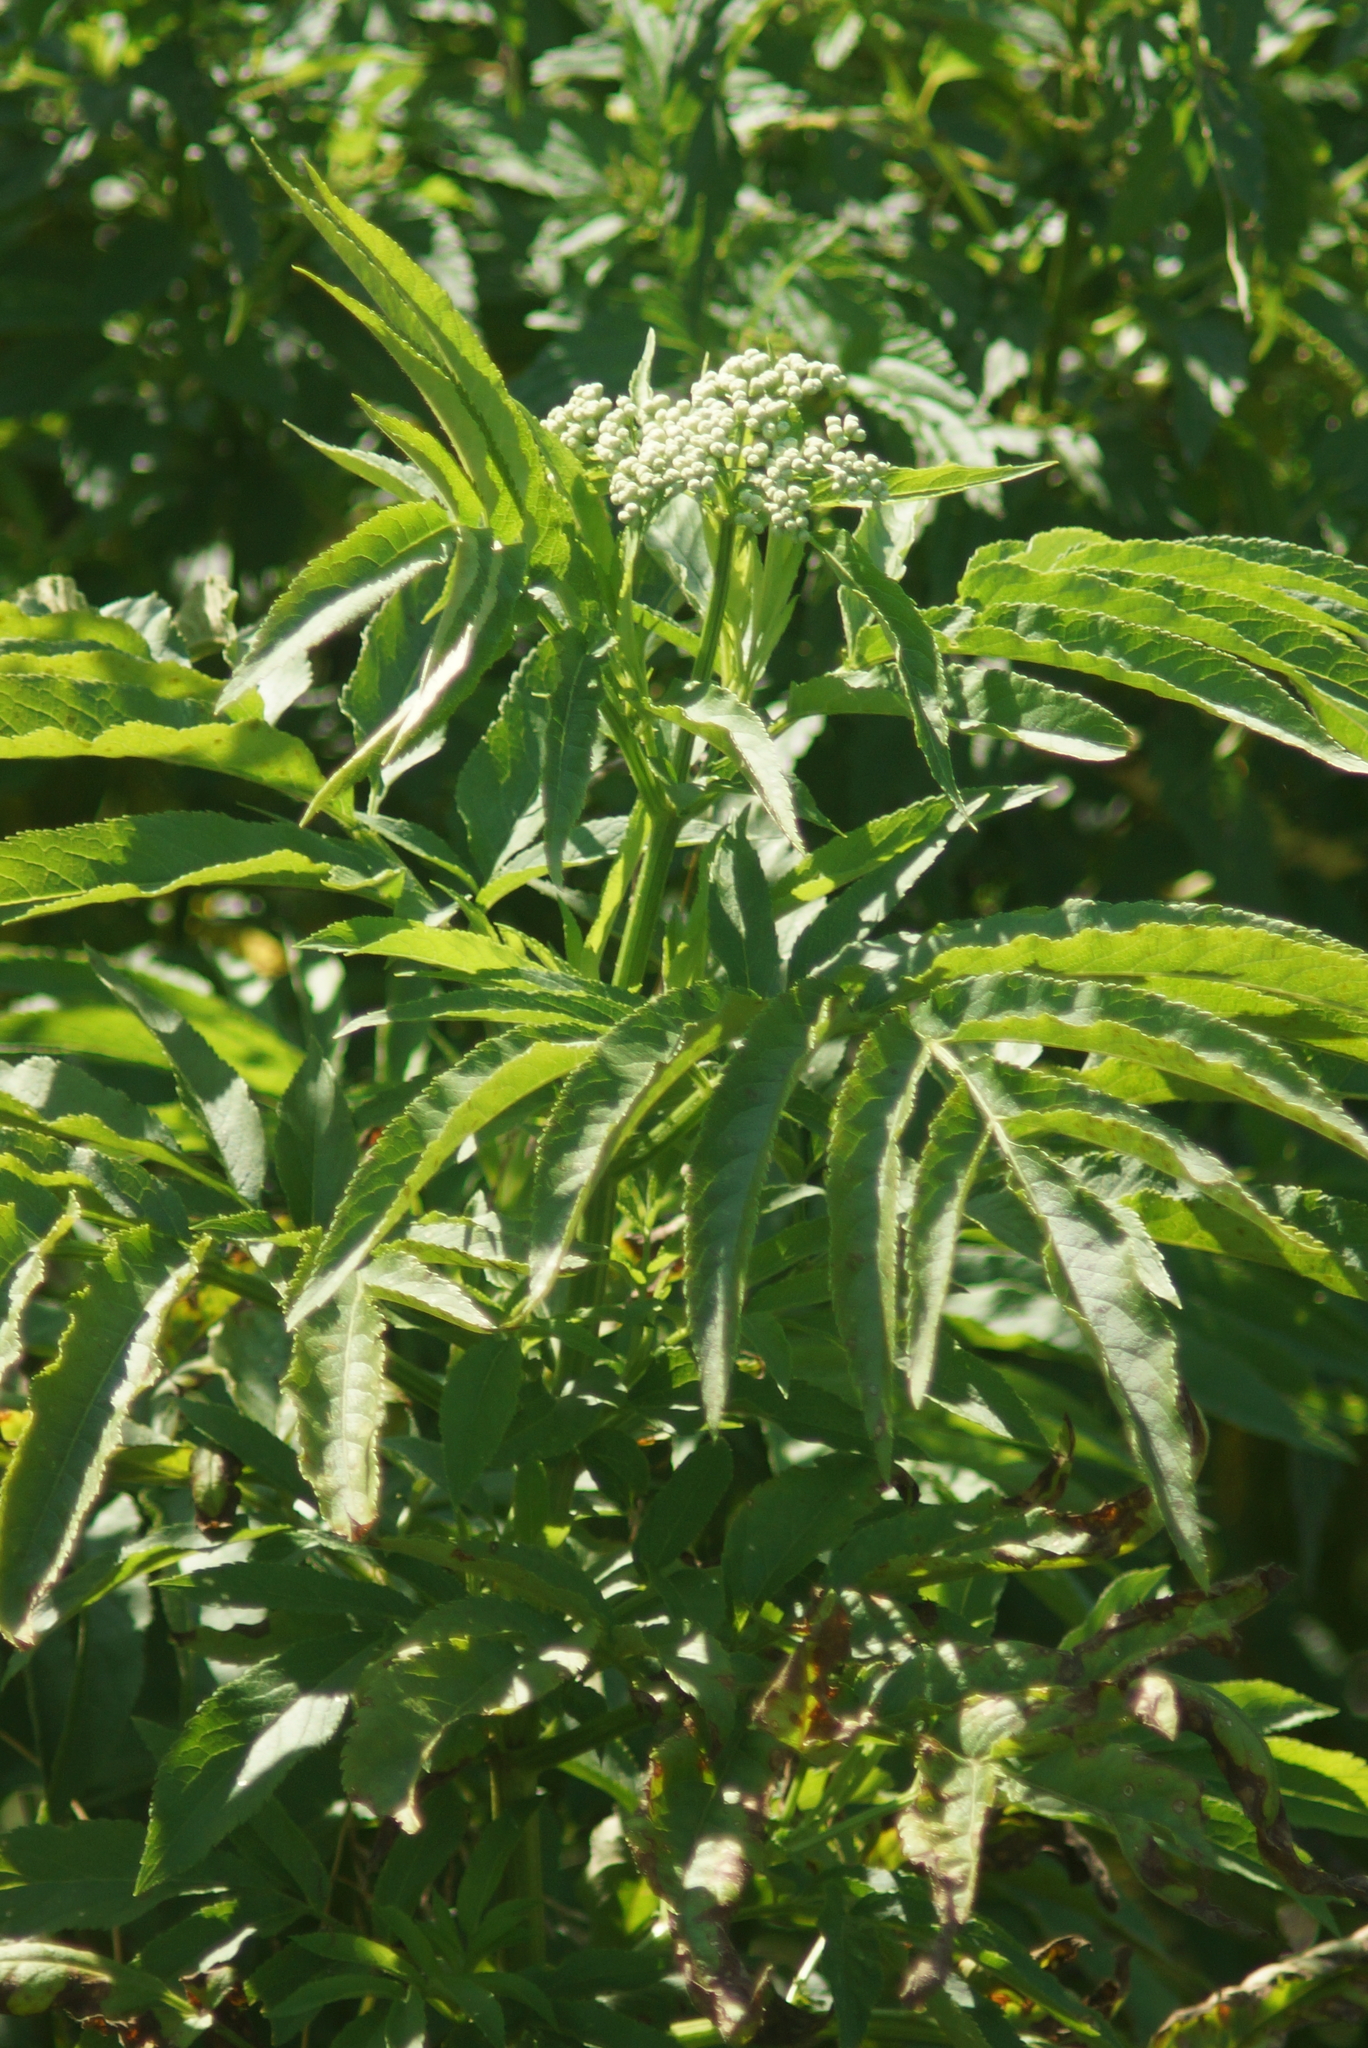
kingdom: Plantae
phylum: Tracheophyta
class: Magnoliopsida
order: Dipsacales
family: Viburnaceae
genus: Sambucus
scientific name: Sambucus ebulus
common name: Dwarf elder
